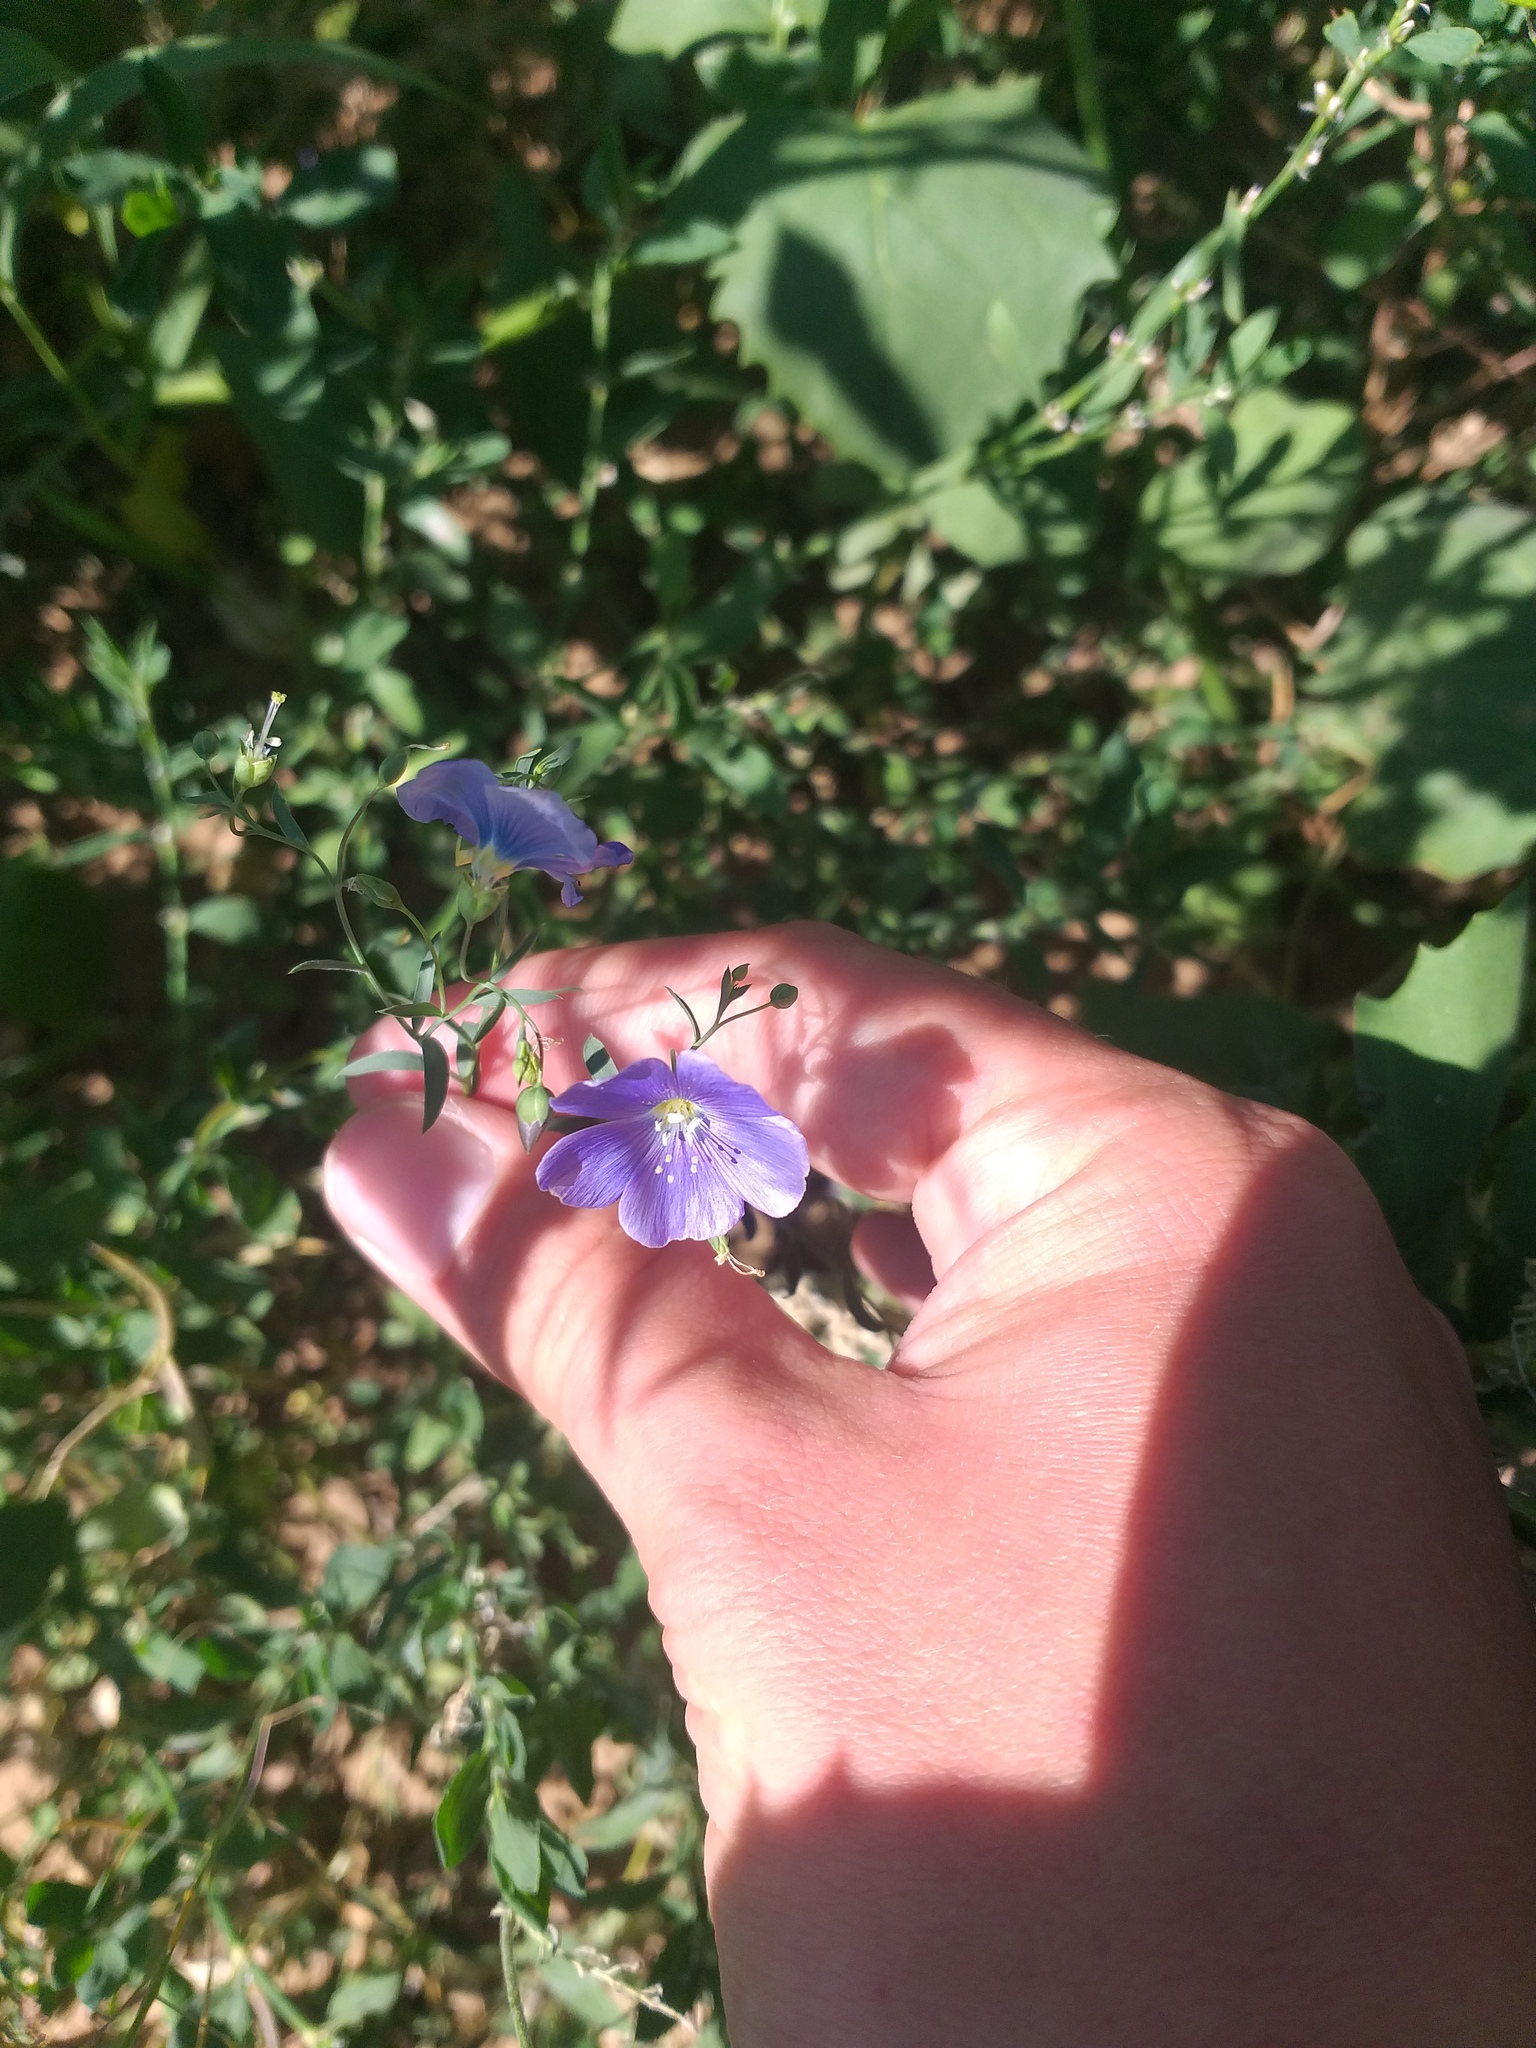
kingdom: Plantae
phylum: Tracheophyta
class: Magnoliopsida
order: Malpighiales
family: Linaceae
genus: Linum
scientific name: Linum austriacum
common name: Austrian flax
